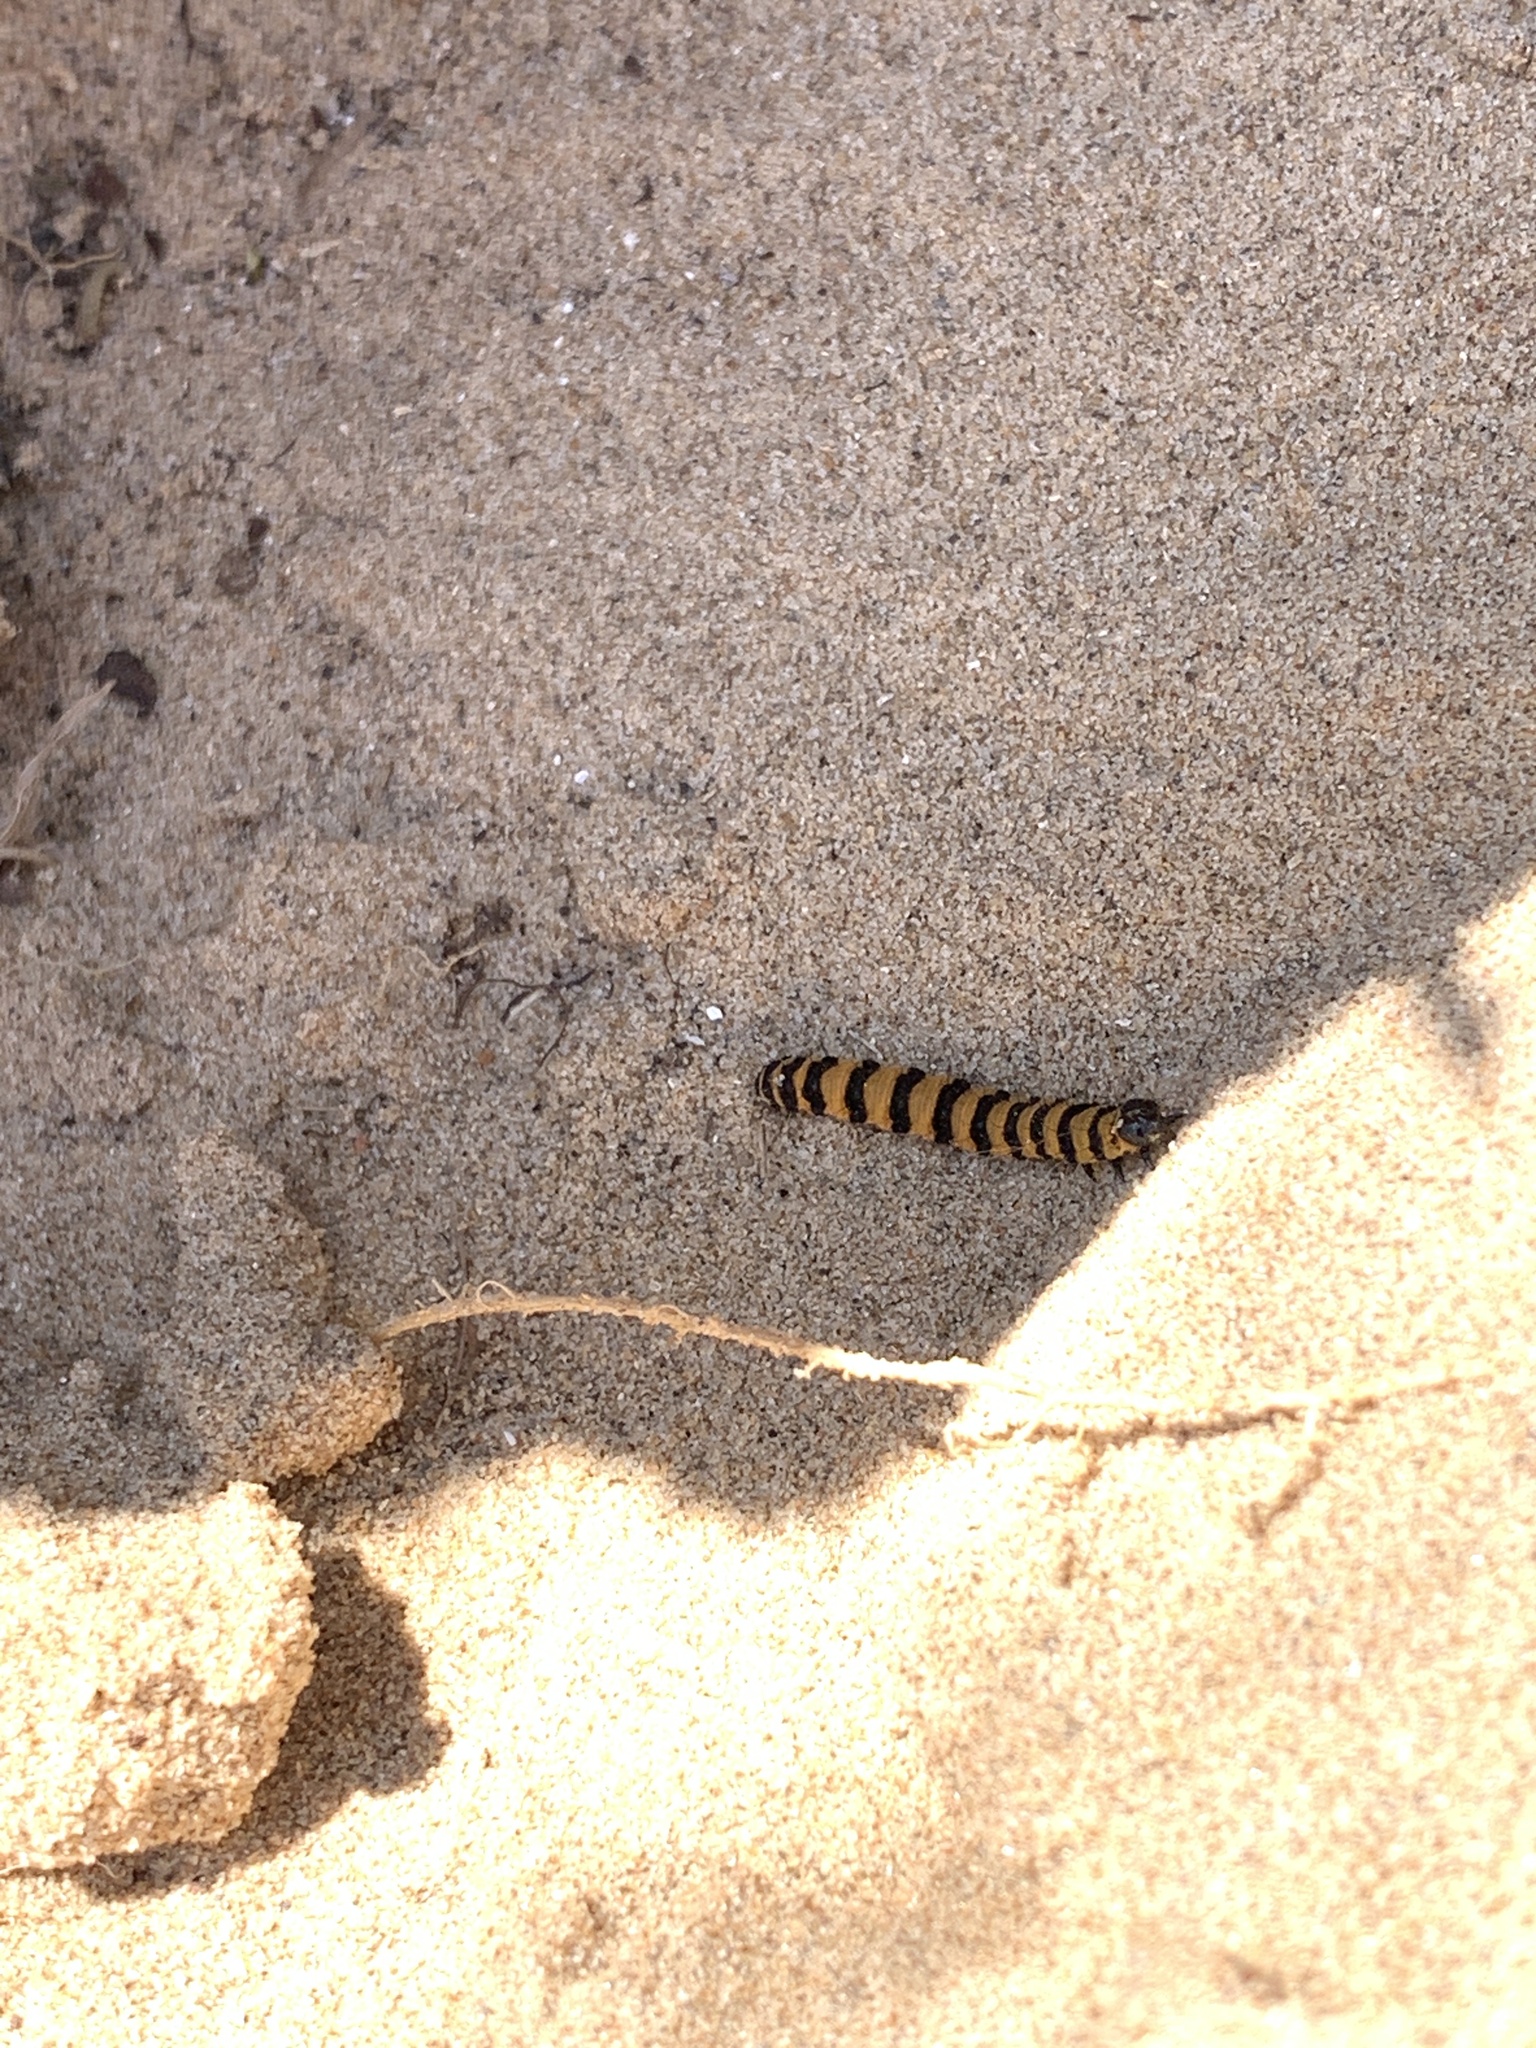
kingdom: Animalia
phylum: Arthropoda
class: Insecta
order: Lepidoptera
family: Erebidae
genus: Tyria
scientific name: Tyria jacobaeae
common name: Cinnabar
